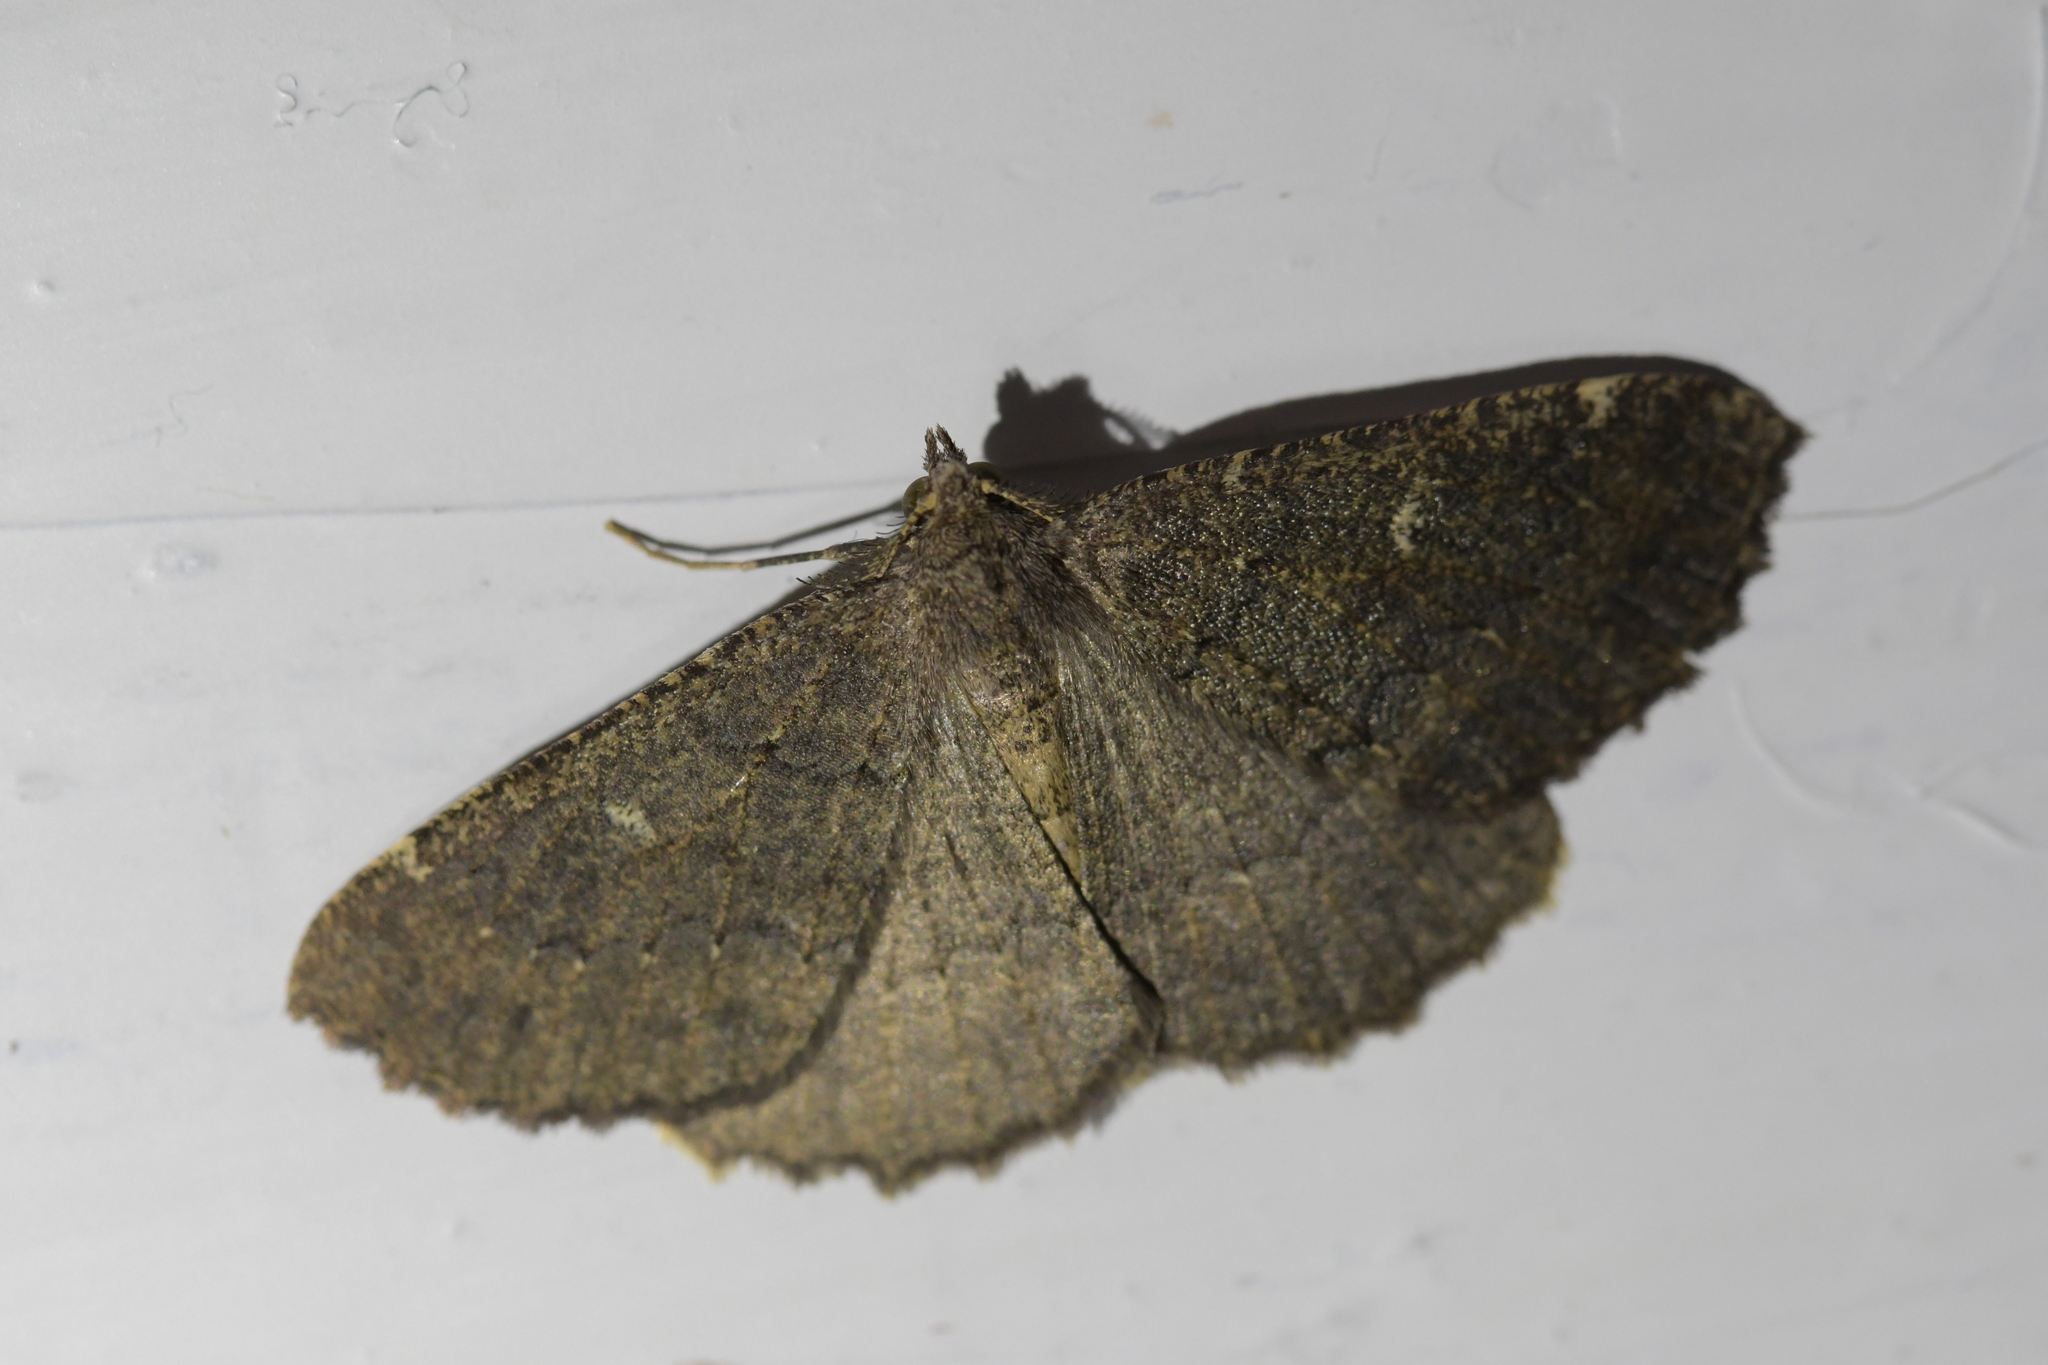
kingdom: Animalia
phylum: Arthropoda
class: Insecta
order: Lepidoptera
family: Geometridae
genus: Cleora
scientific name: Cleora scriptaria
